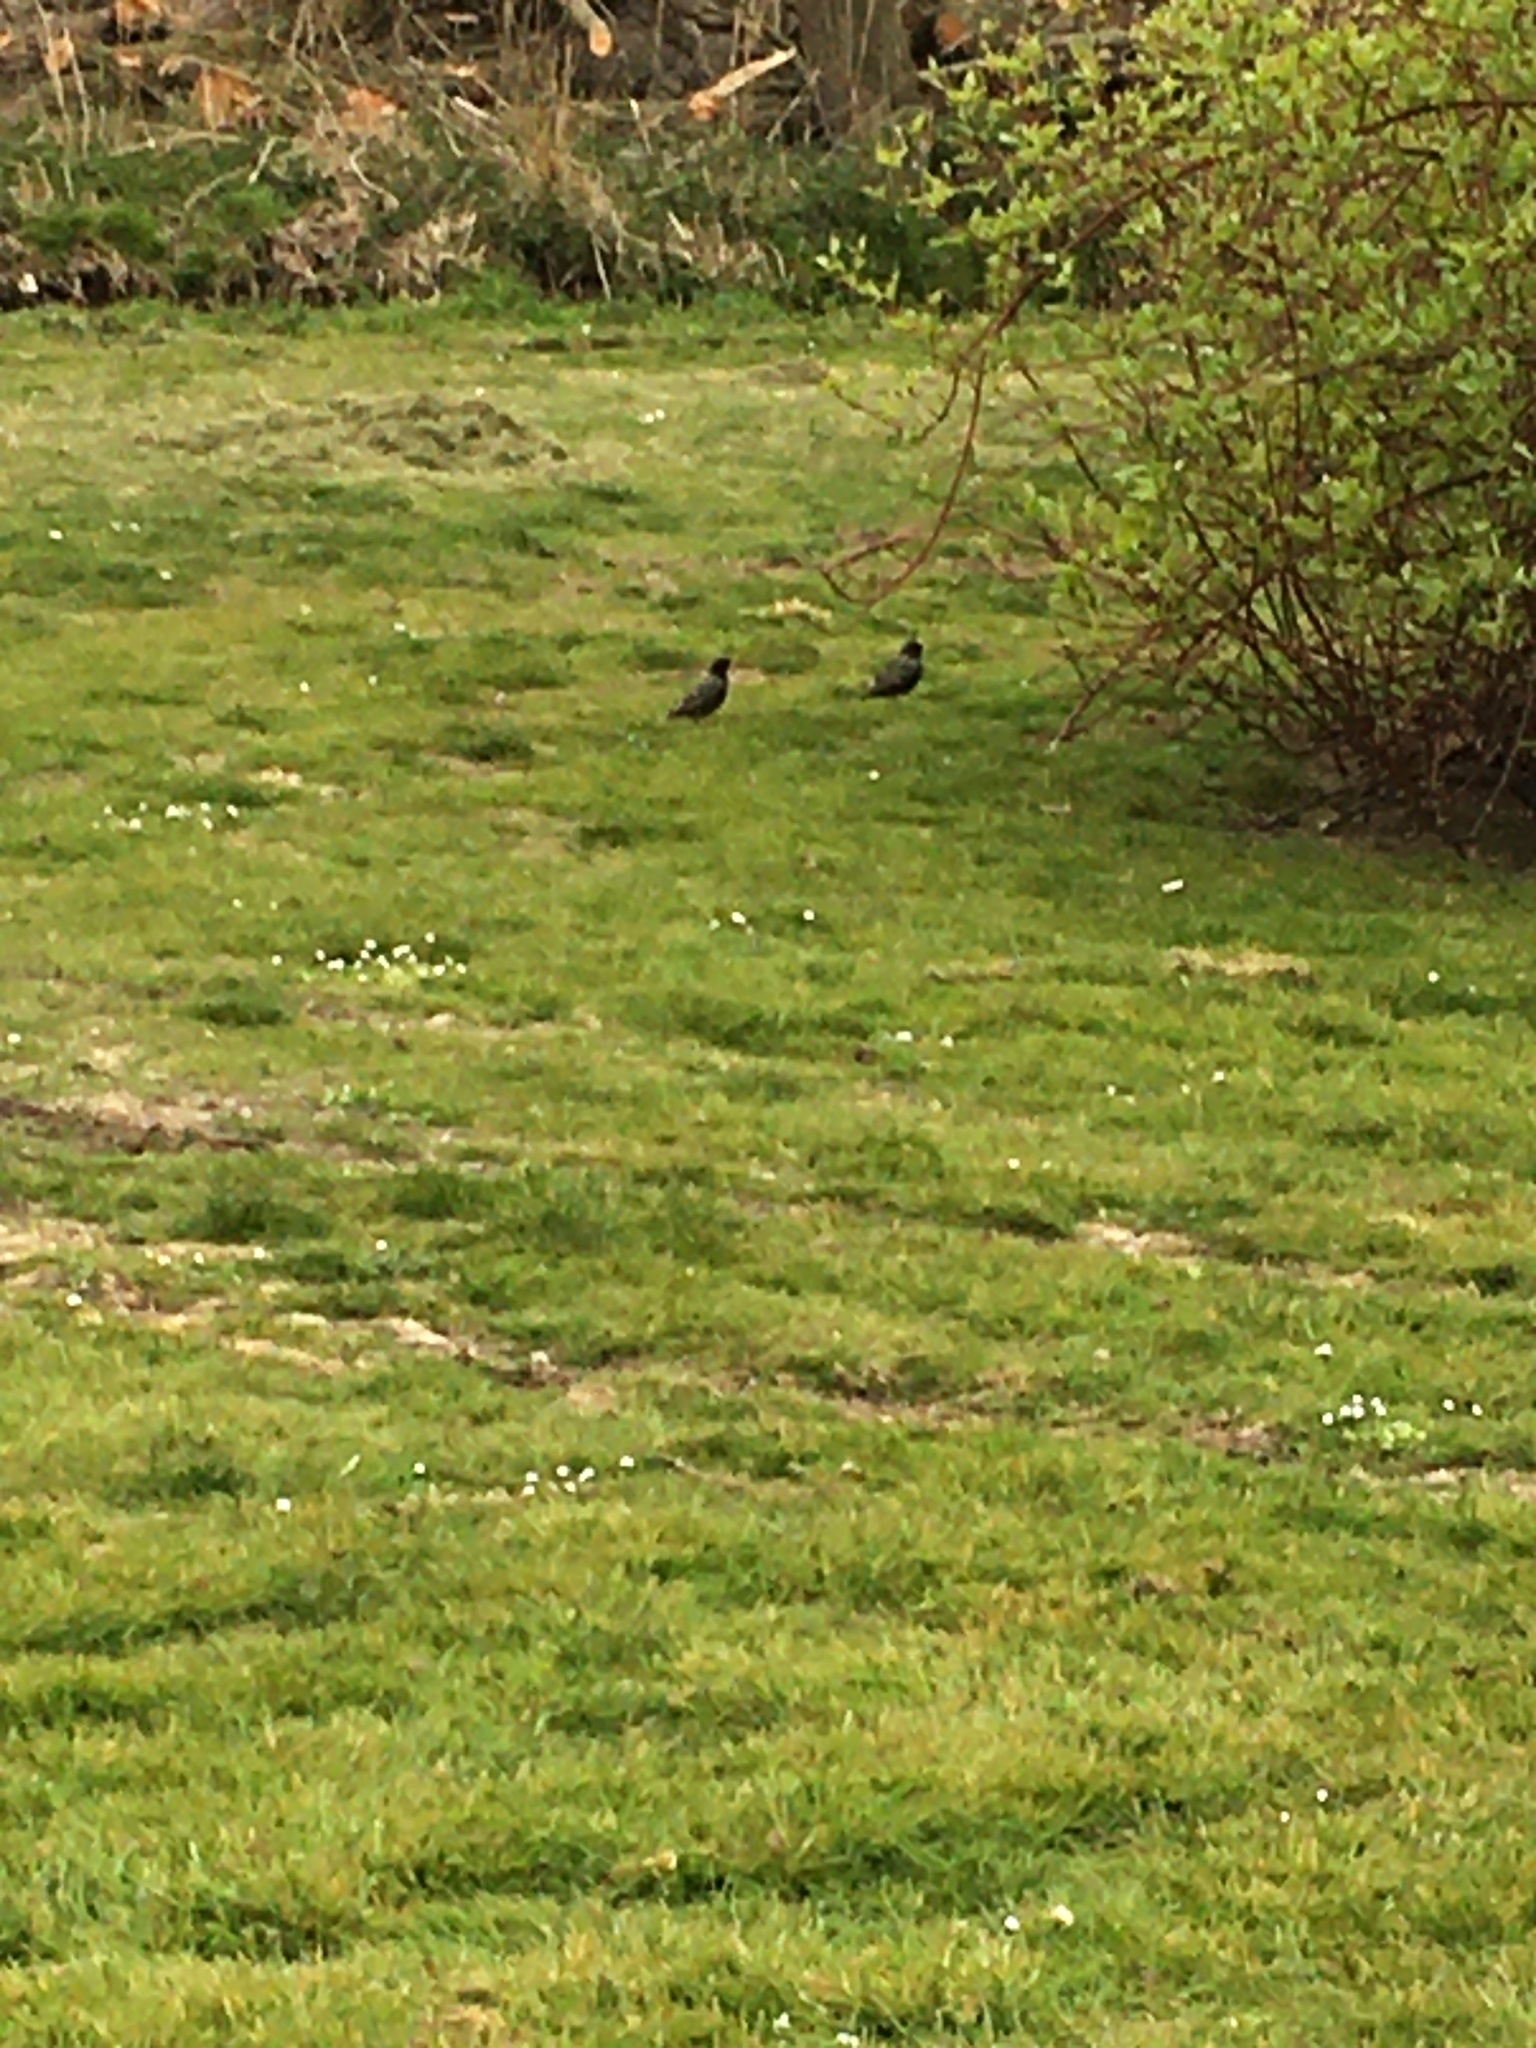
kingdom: Animalia
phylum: Chordata
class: Aves
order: Passeriformes
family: Sturnidae
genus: Sturnus
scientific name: Sturnus vulgaris
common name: Common starling
